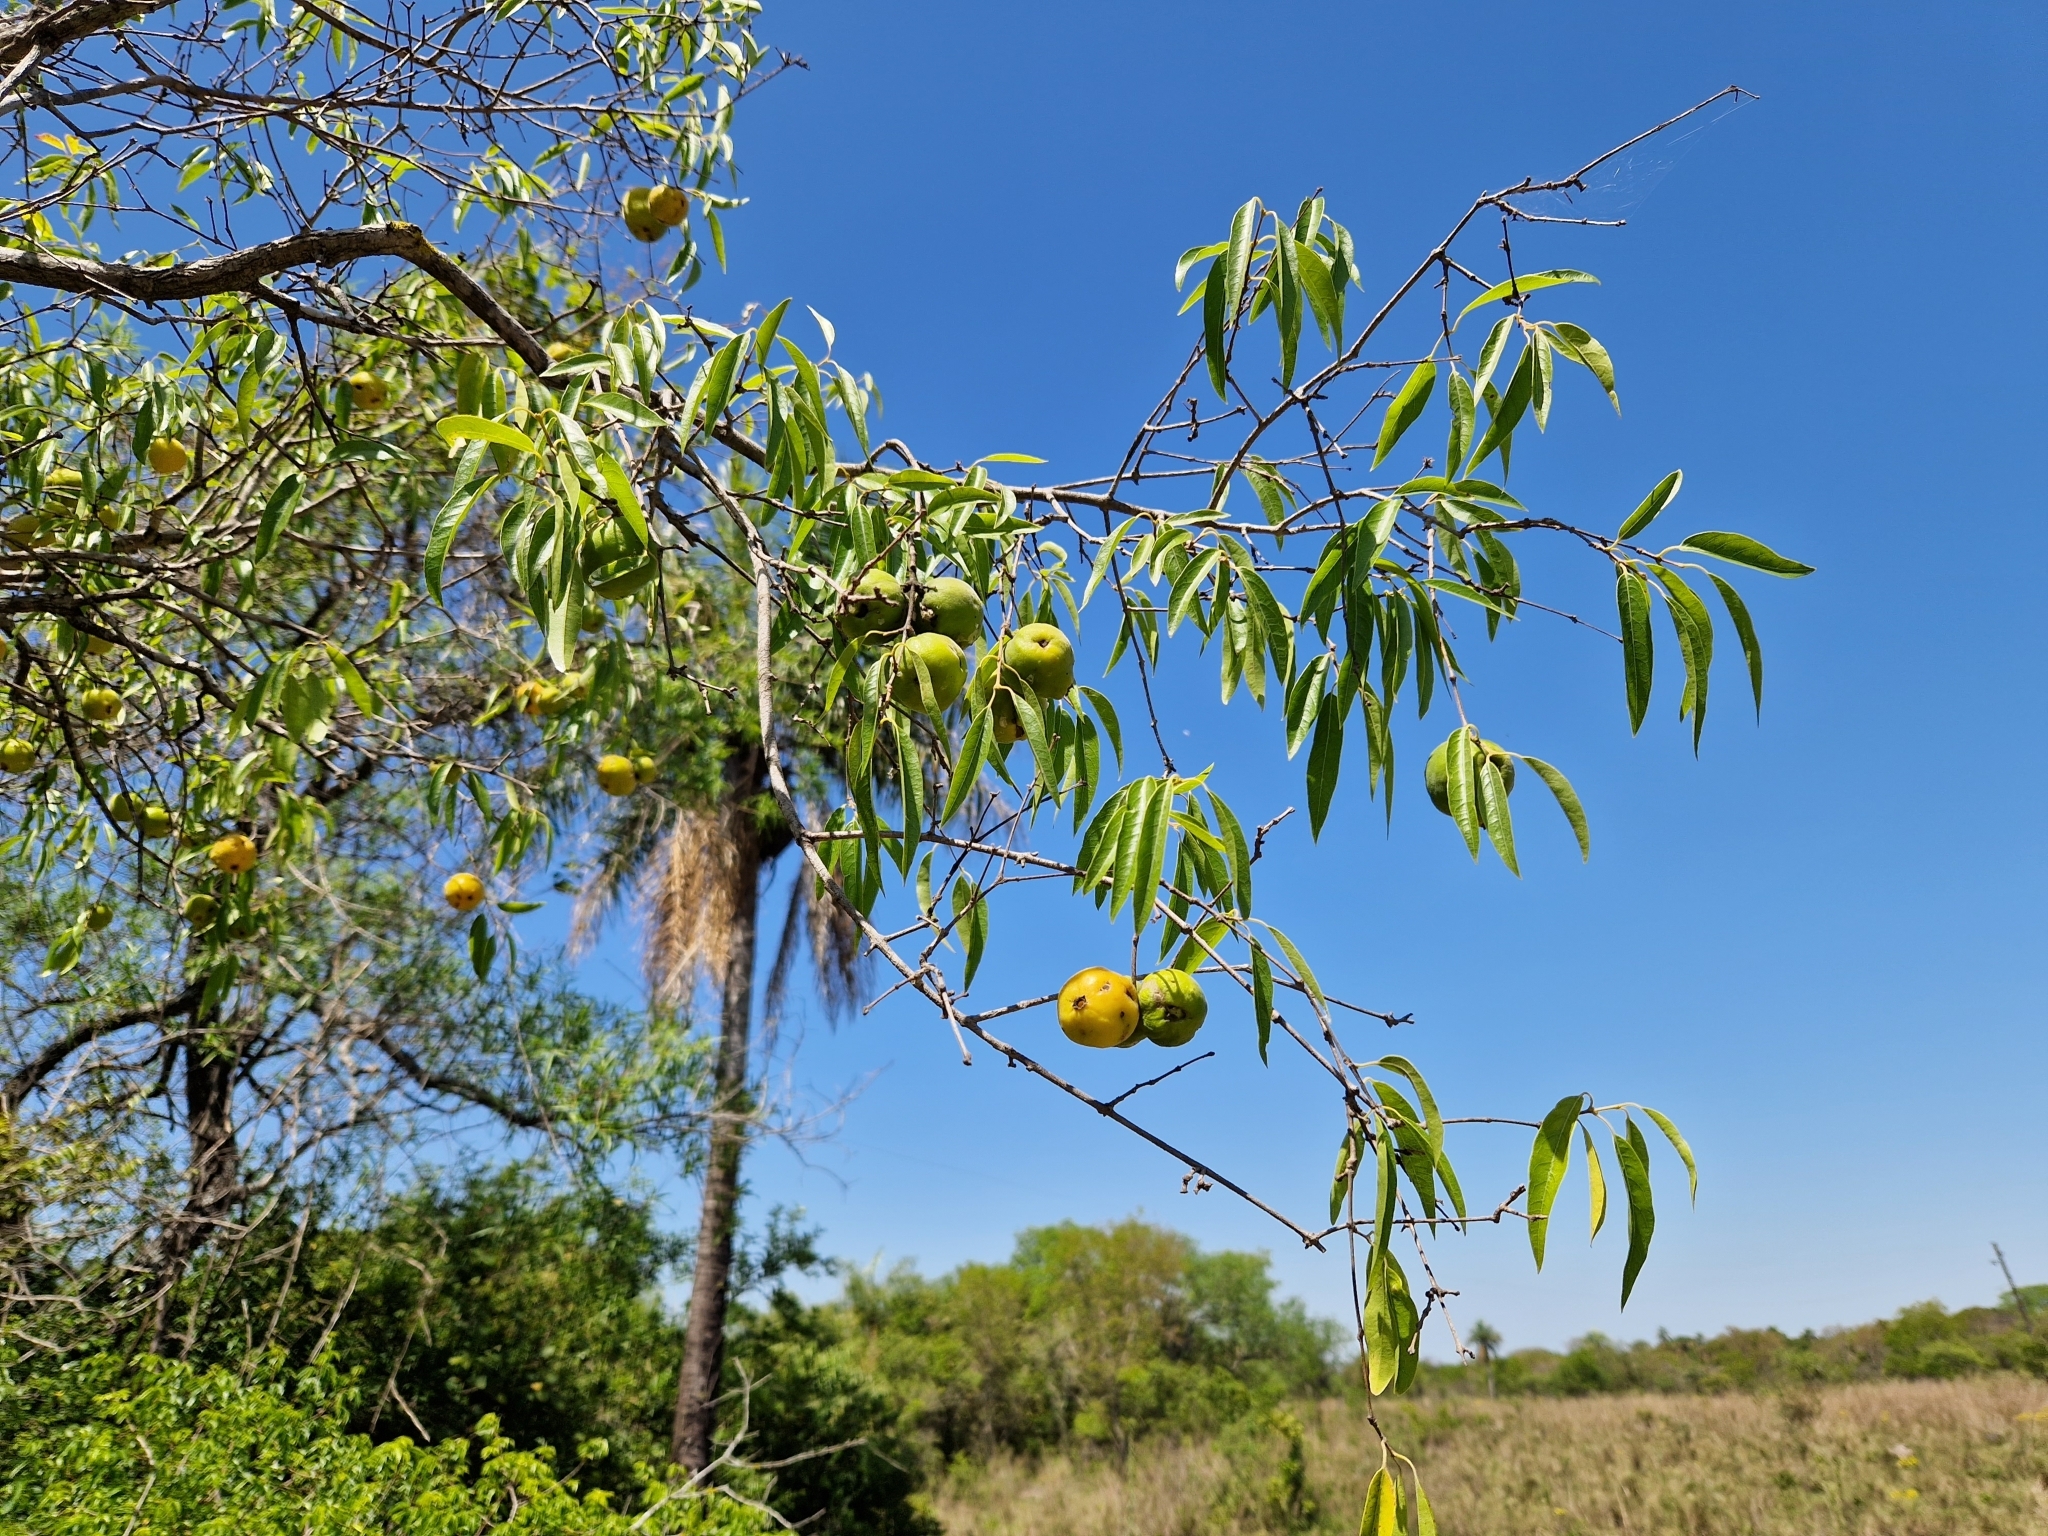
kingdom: Plantae
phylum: Tracheophyta
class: Magnoliopsida
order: Myrtales
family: Myrtaceae
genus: Eugenia
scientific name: Eugenia myrcianthes
